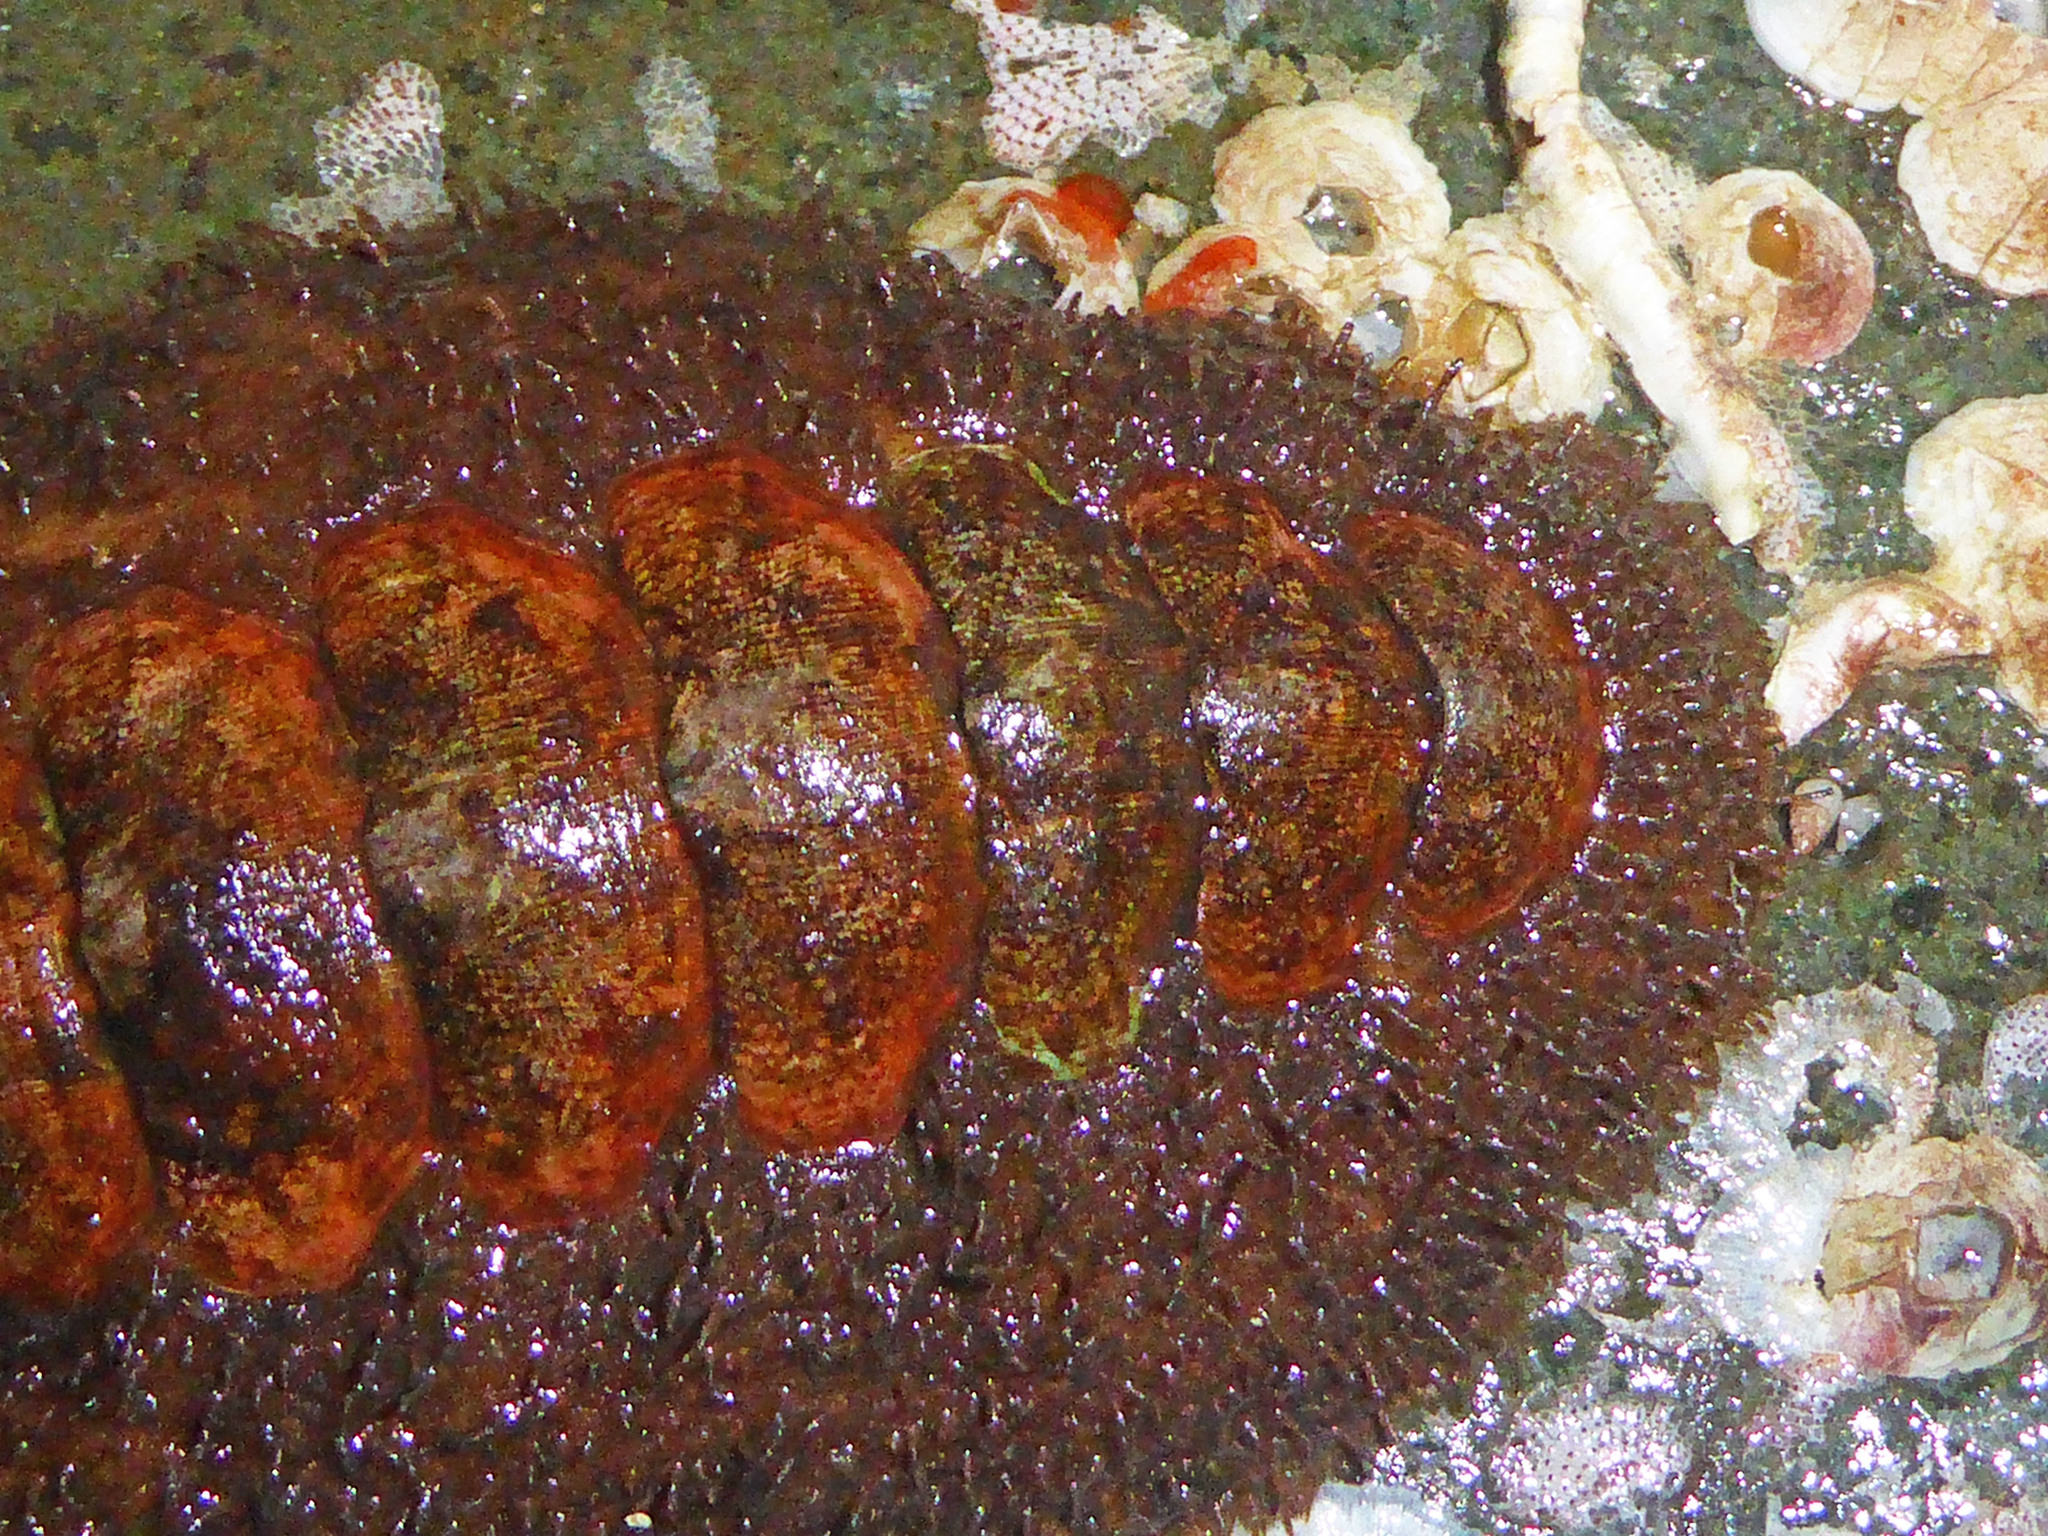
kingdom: Animalia
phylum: Mollusca
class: Polyplacophora
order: Chitonida
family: Mopaliidae
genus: Mopalia
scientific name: Mopalia ciliata
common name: Hairy chiton
